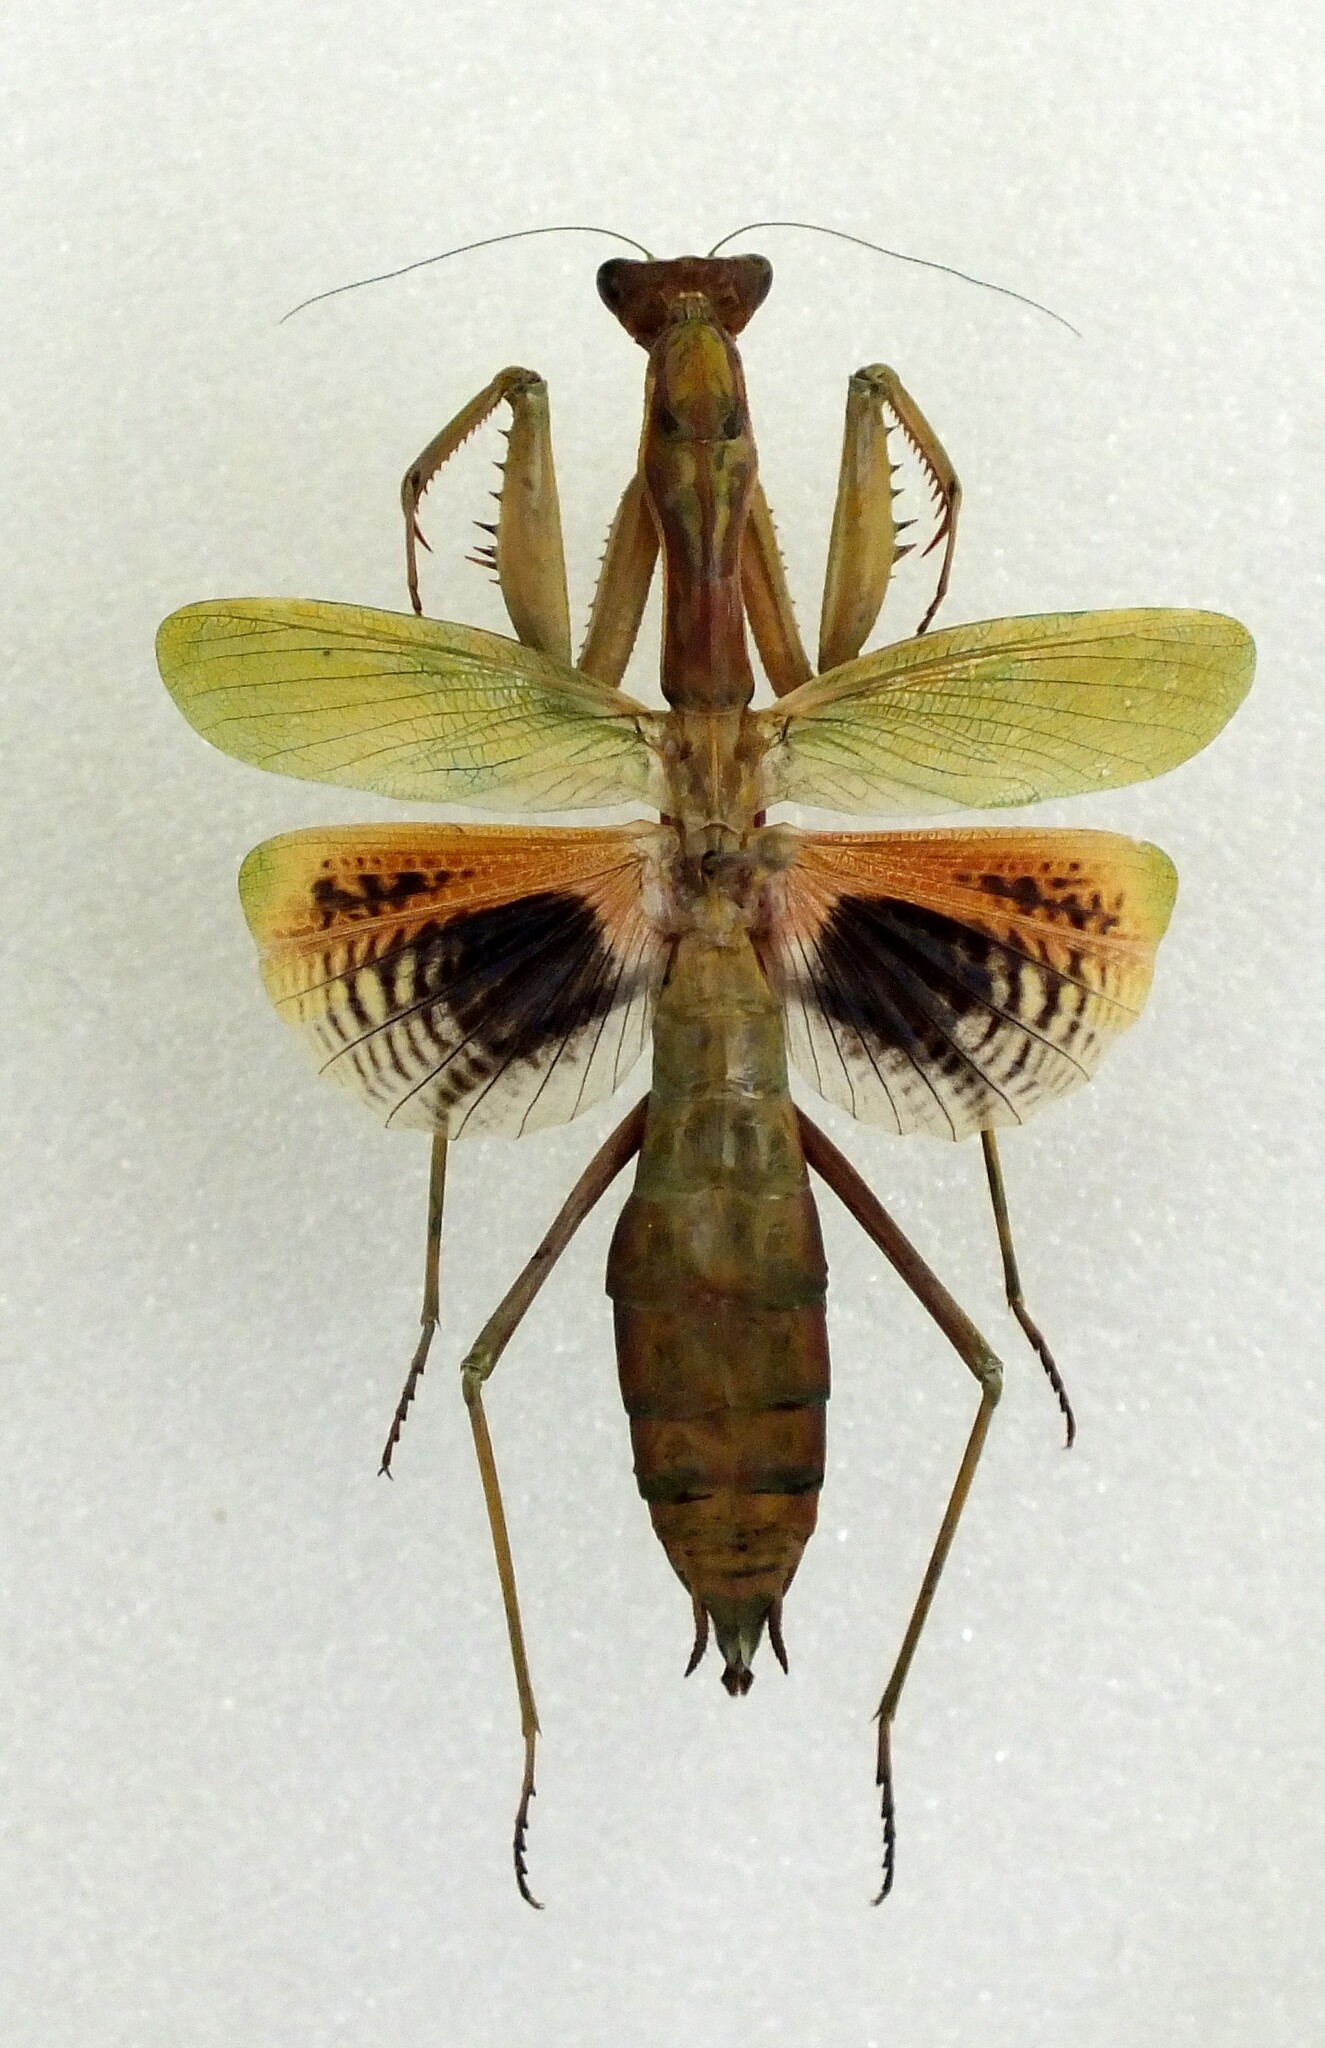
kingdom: Animalia
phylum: Arthropoda
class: Insecta
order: Mantodea
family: Eremiaphilidae
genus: Iris
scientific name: Iris polystictica
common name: Dot-winged mantis
